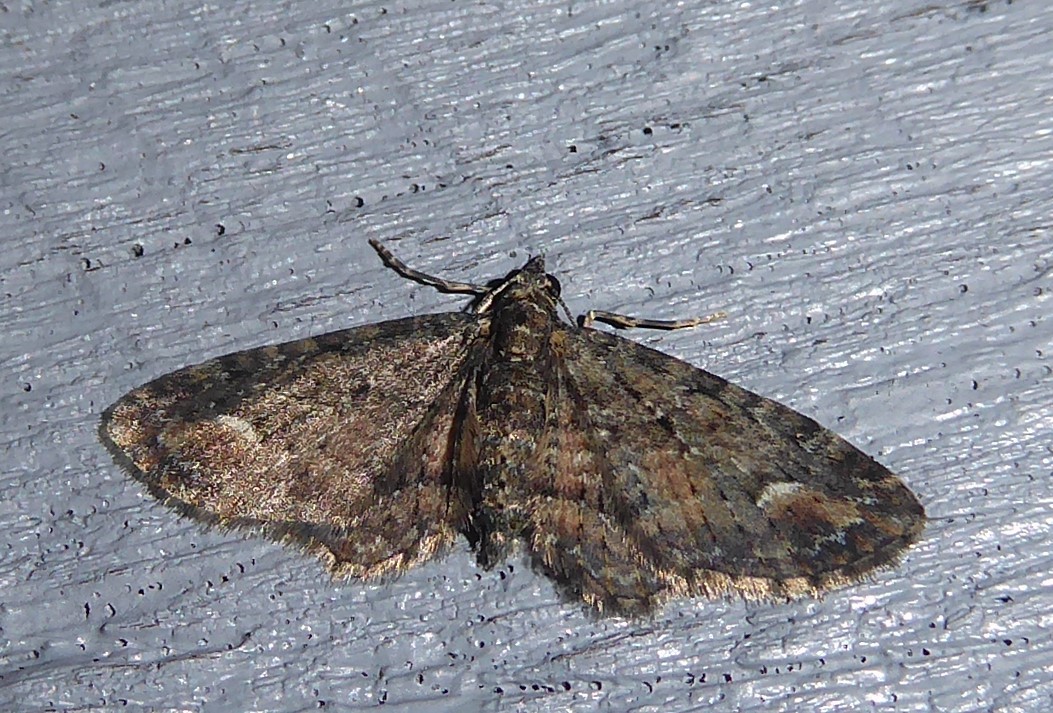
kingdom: Animalia
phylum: Arthropoda
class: Insecta
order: Lepidoptera
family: Geometridae
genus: Pasiphilodes
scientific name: Pasiphilodes testulata
